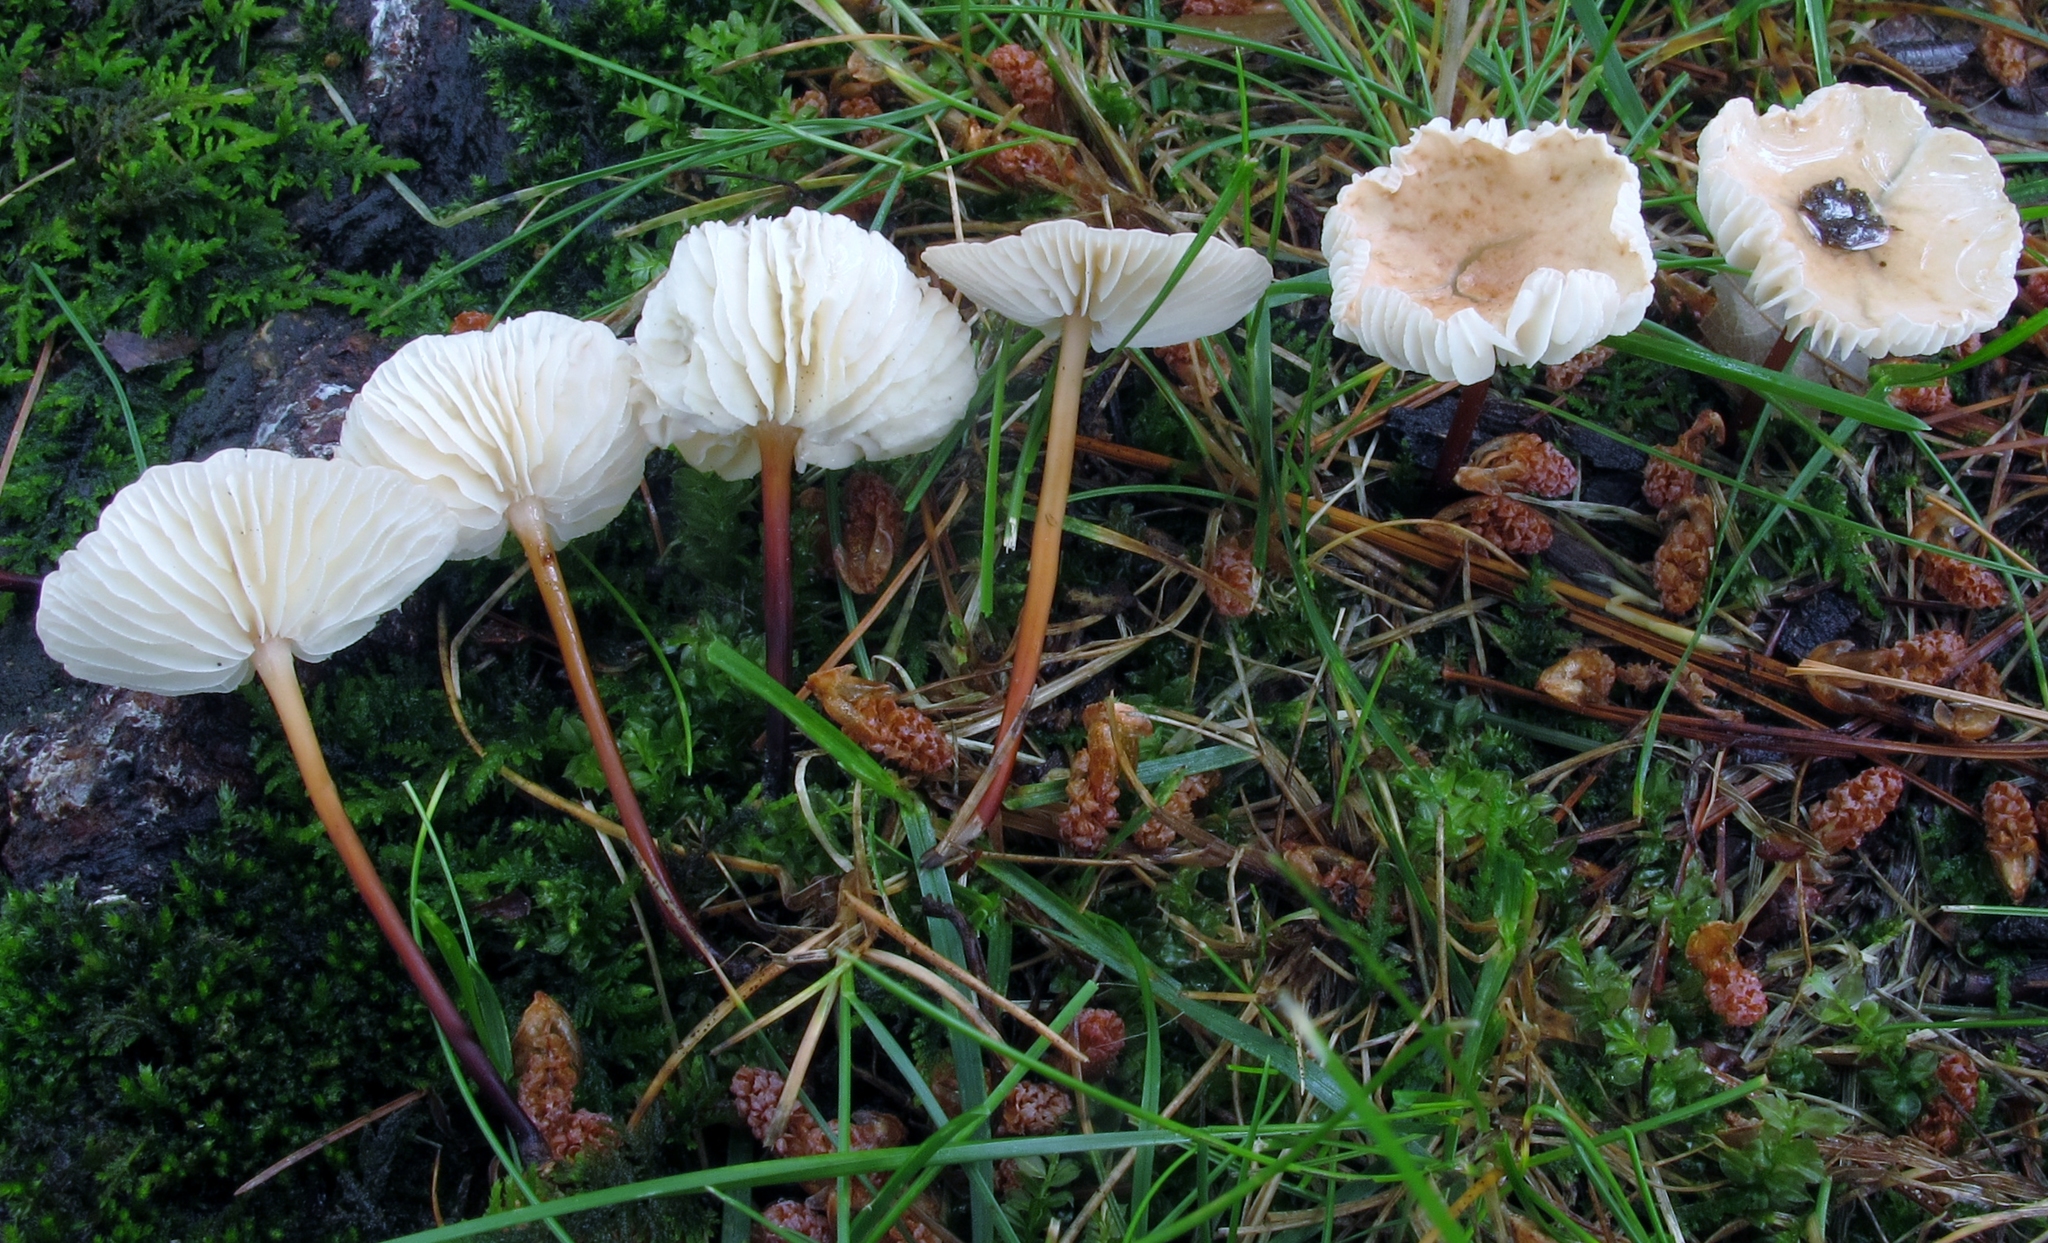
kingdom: Fungi
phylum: Basidiomycota
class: Agaricomycetes
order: Agaricales
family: Omphalotaceae
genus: Mycetinis
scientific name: Mycetinis scorodonius
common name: Vampires bane
